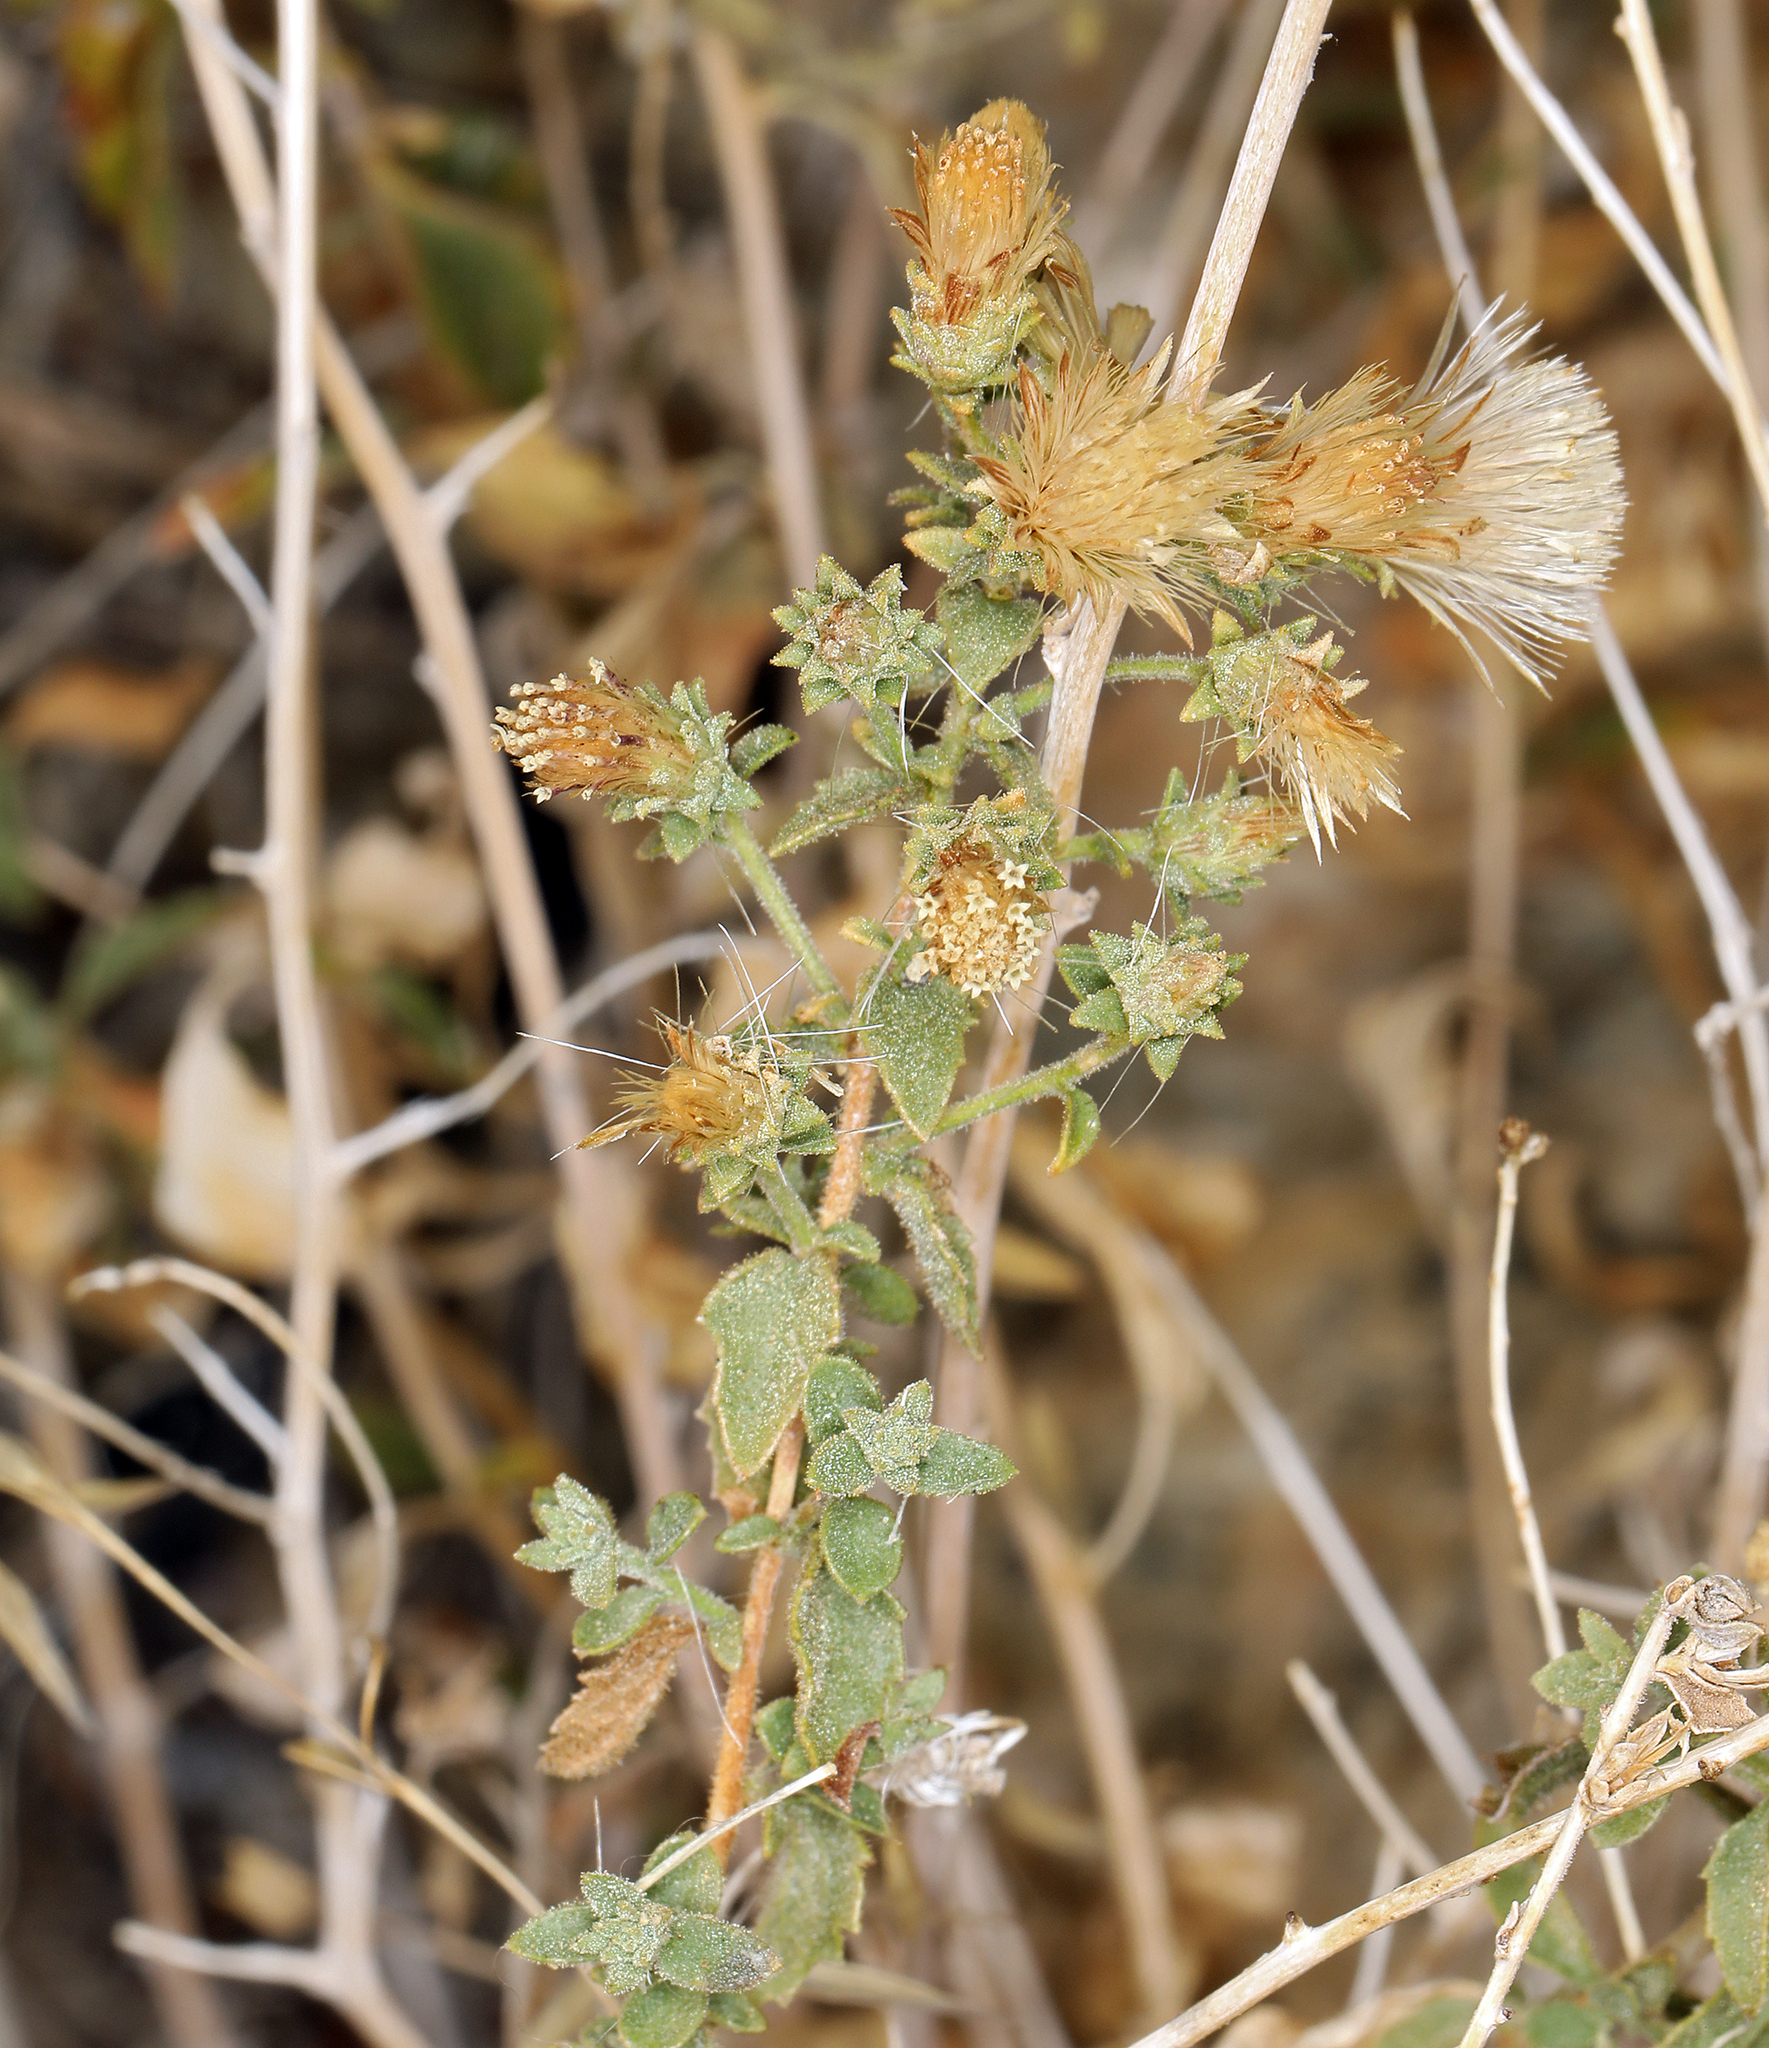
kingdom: Plantae
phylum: Tracheophyta
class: Magnoliopsida
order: Asterales
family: Asteraceae
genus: Brickellia
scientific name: Brickellia microphylla
